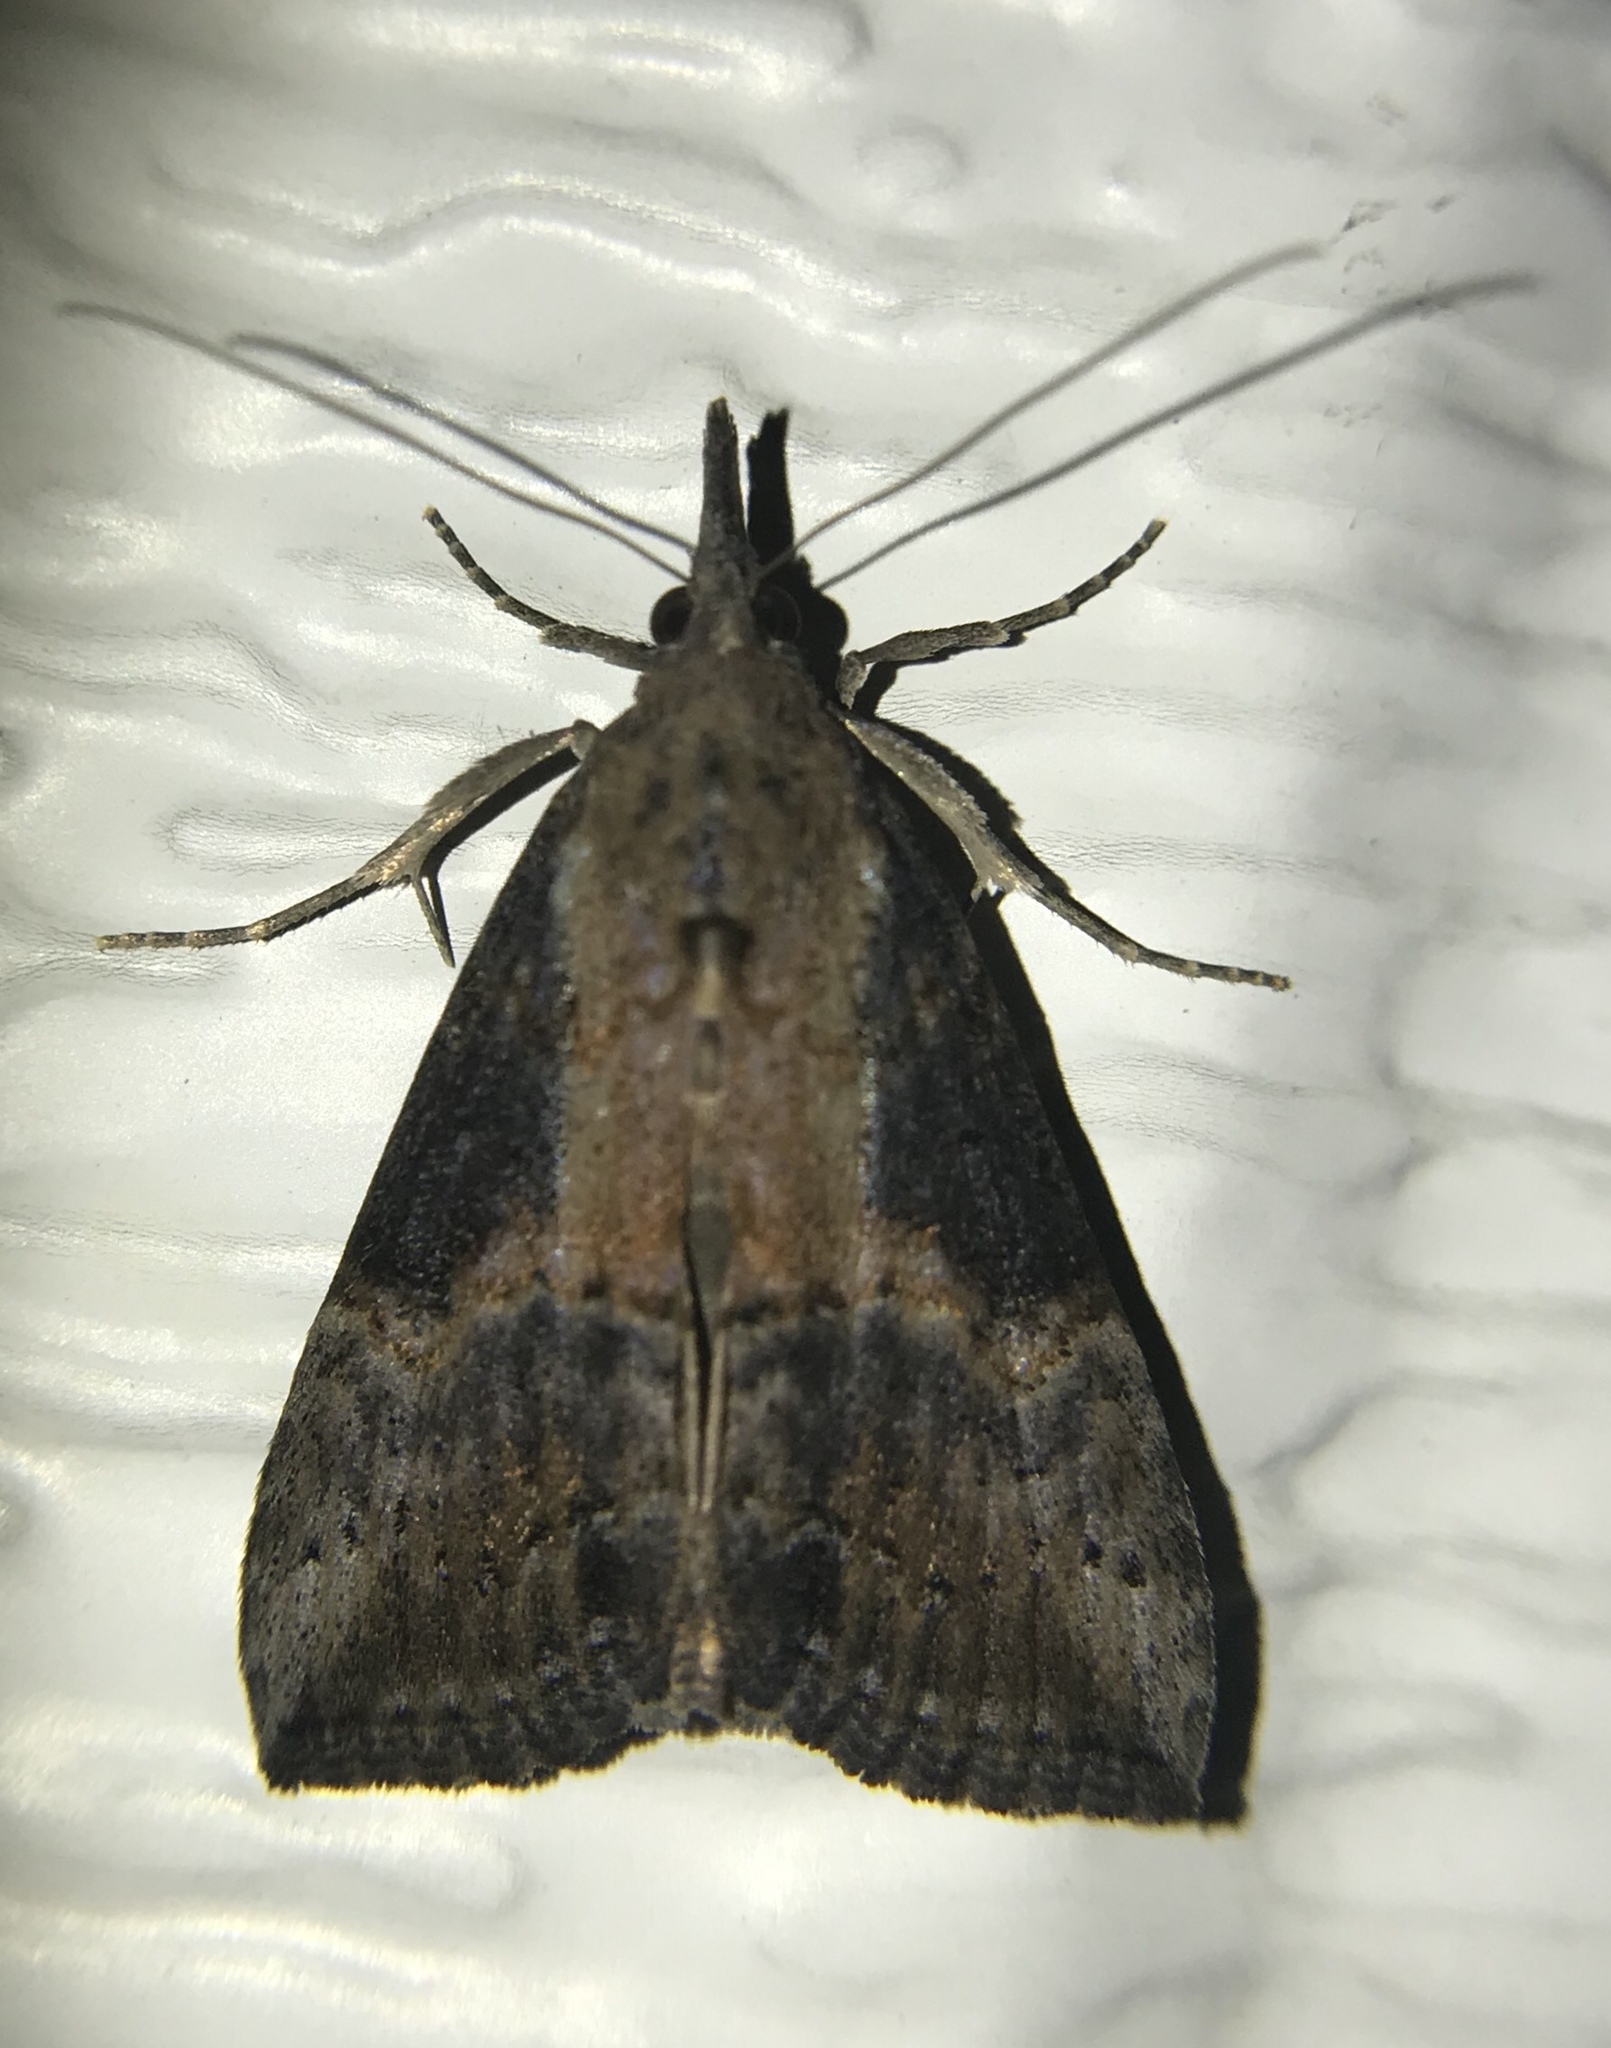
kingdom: Animalia
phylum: Arthropoda
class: Insecta
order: Lepidoptera
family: Erebidae
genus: Hypena
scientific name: Hypena scabra
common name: Green cloverworm
